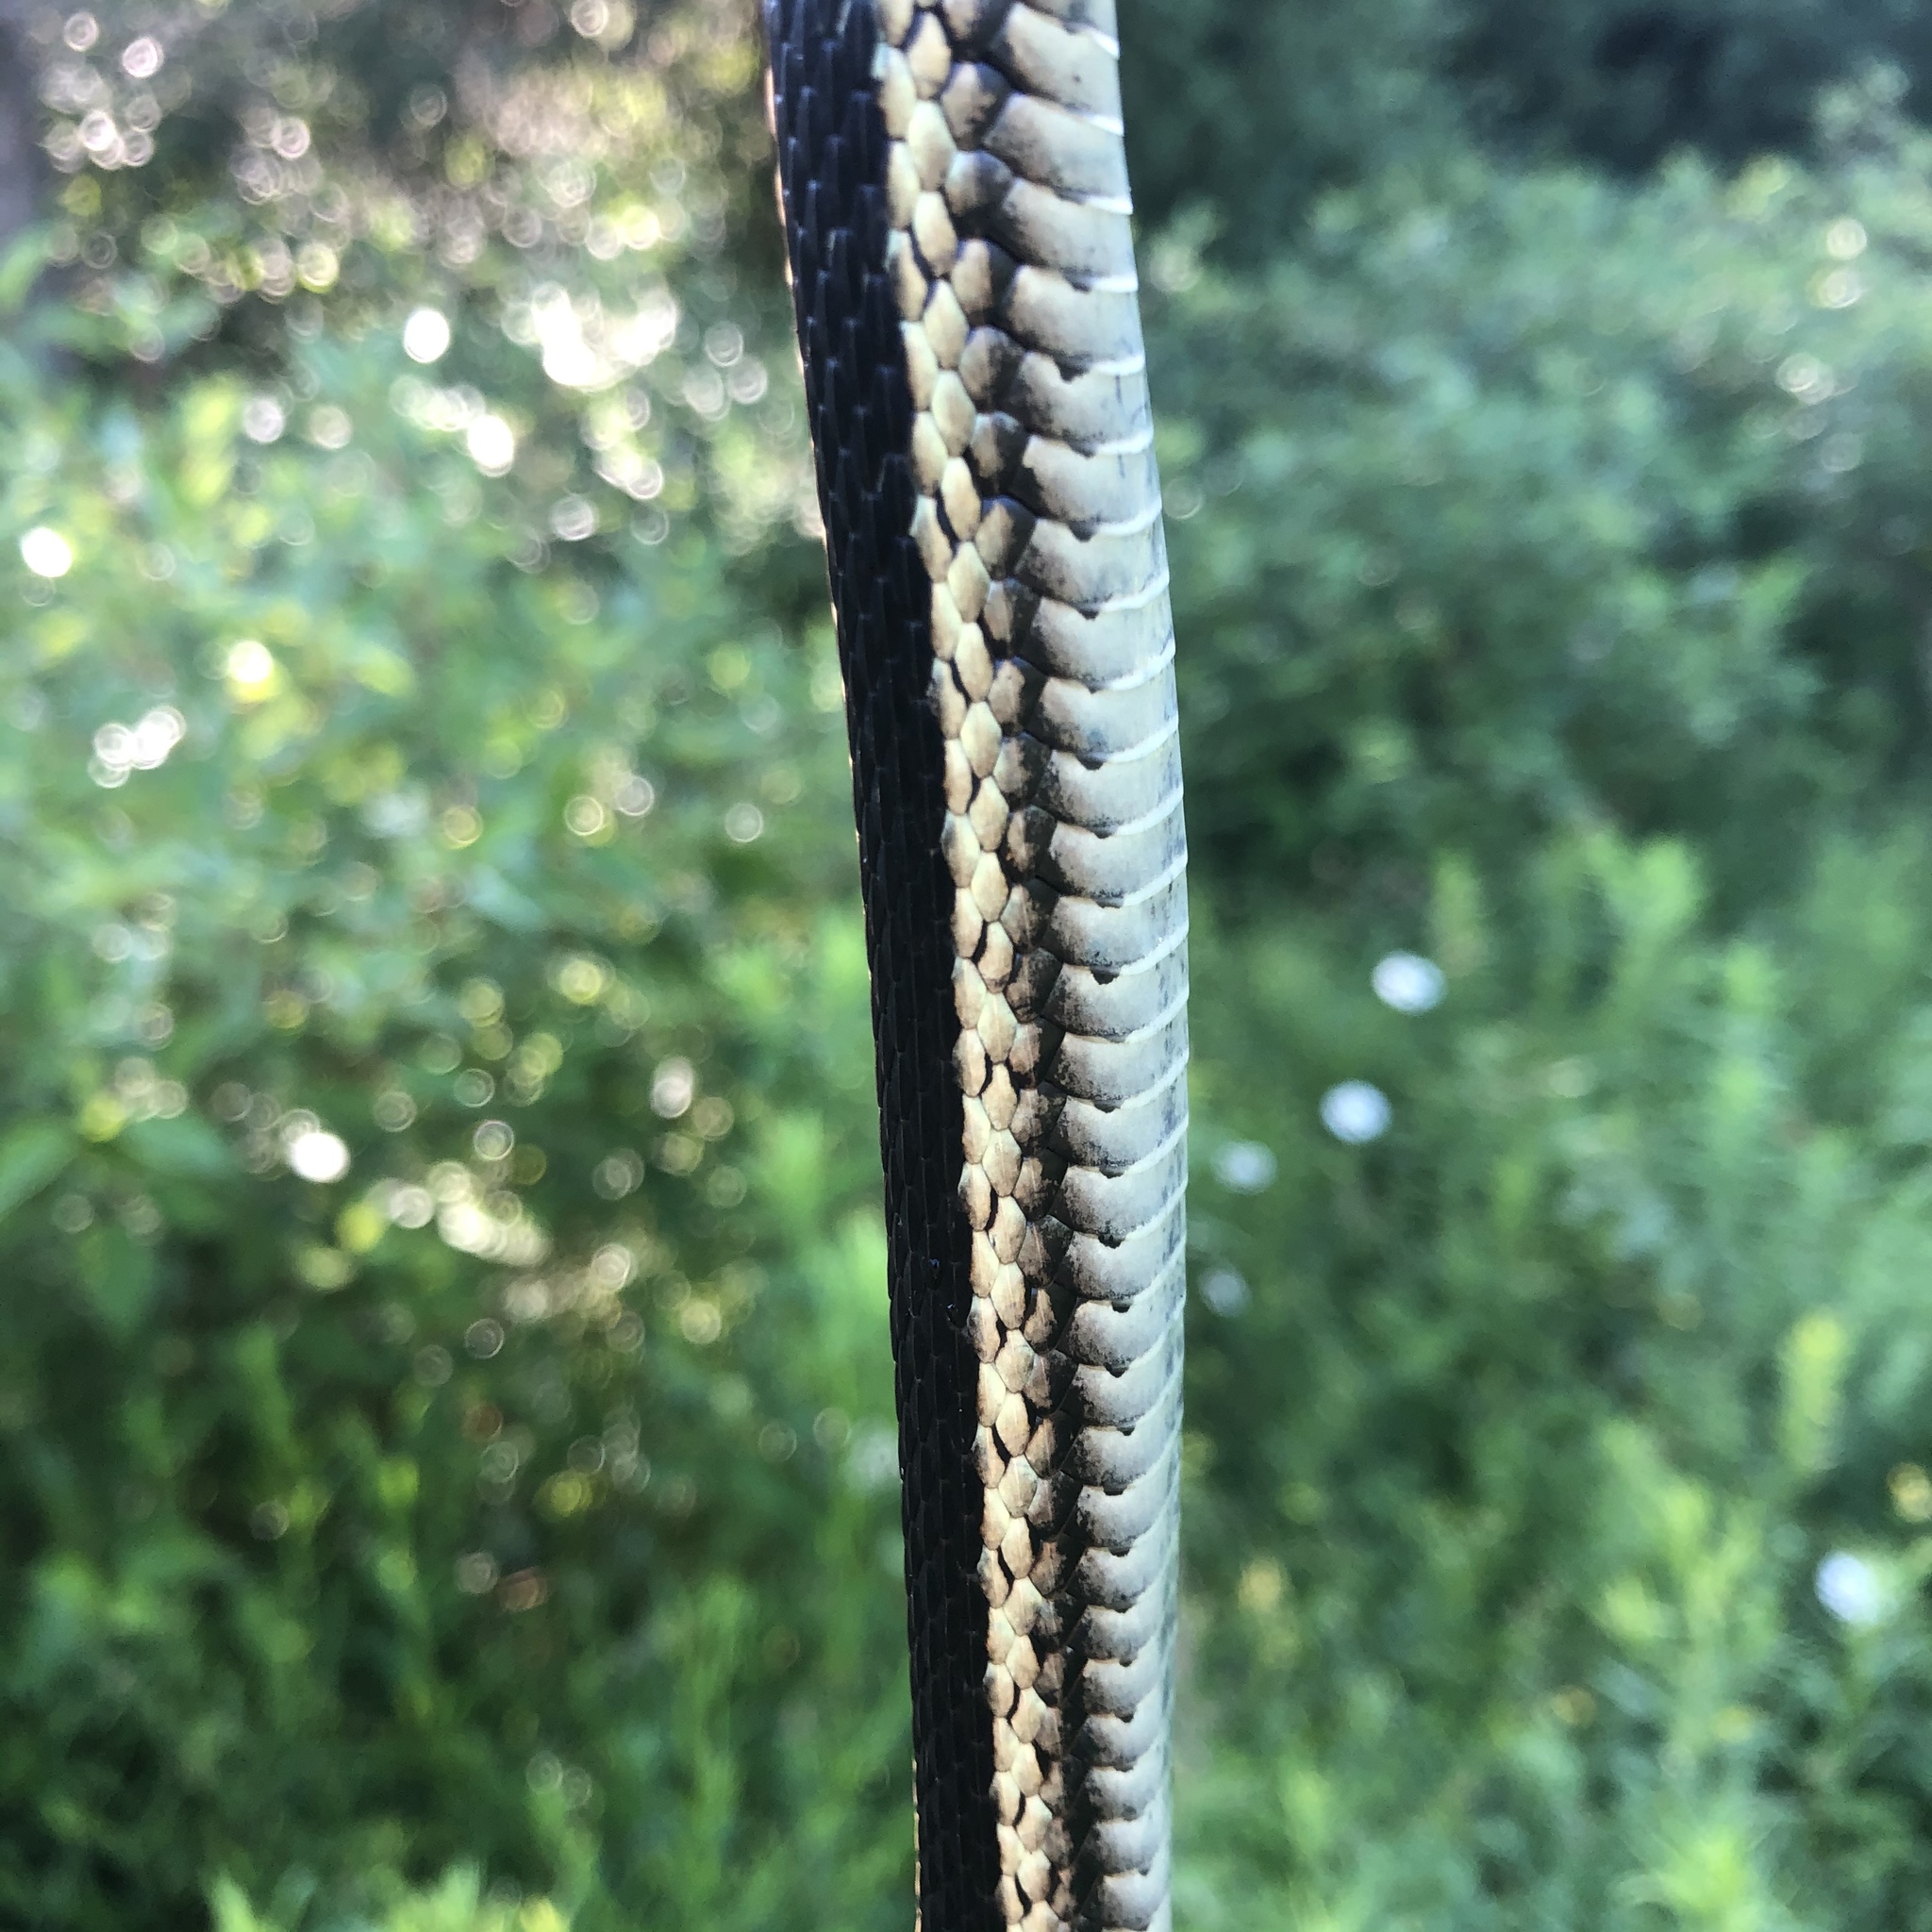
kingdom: Animalia
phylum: Chordata
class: Squamata
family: Colubridae
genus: Thamnophis
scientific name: Thamnophis sirtalis
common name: Common garter snake
